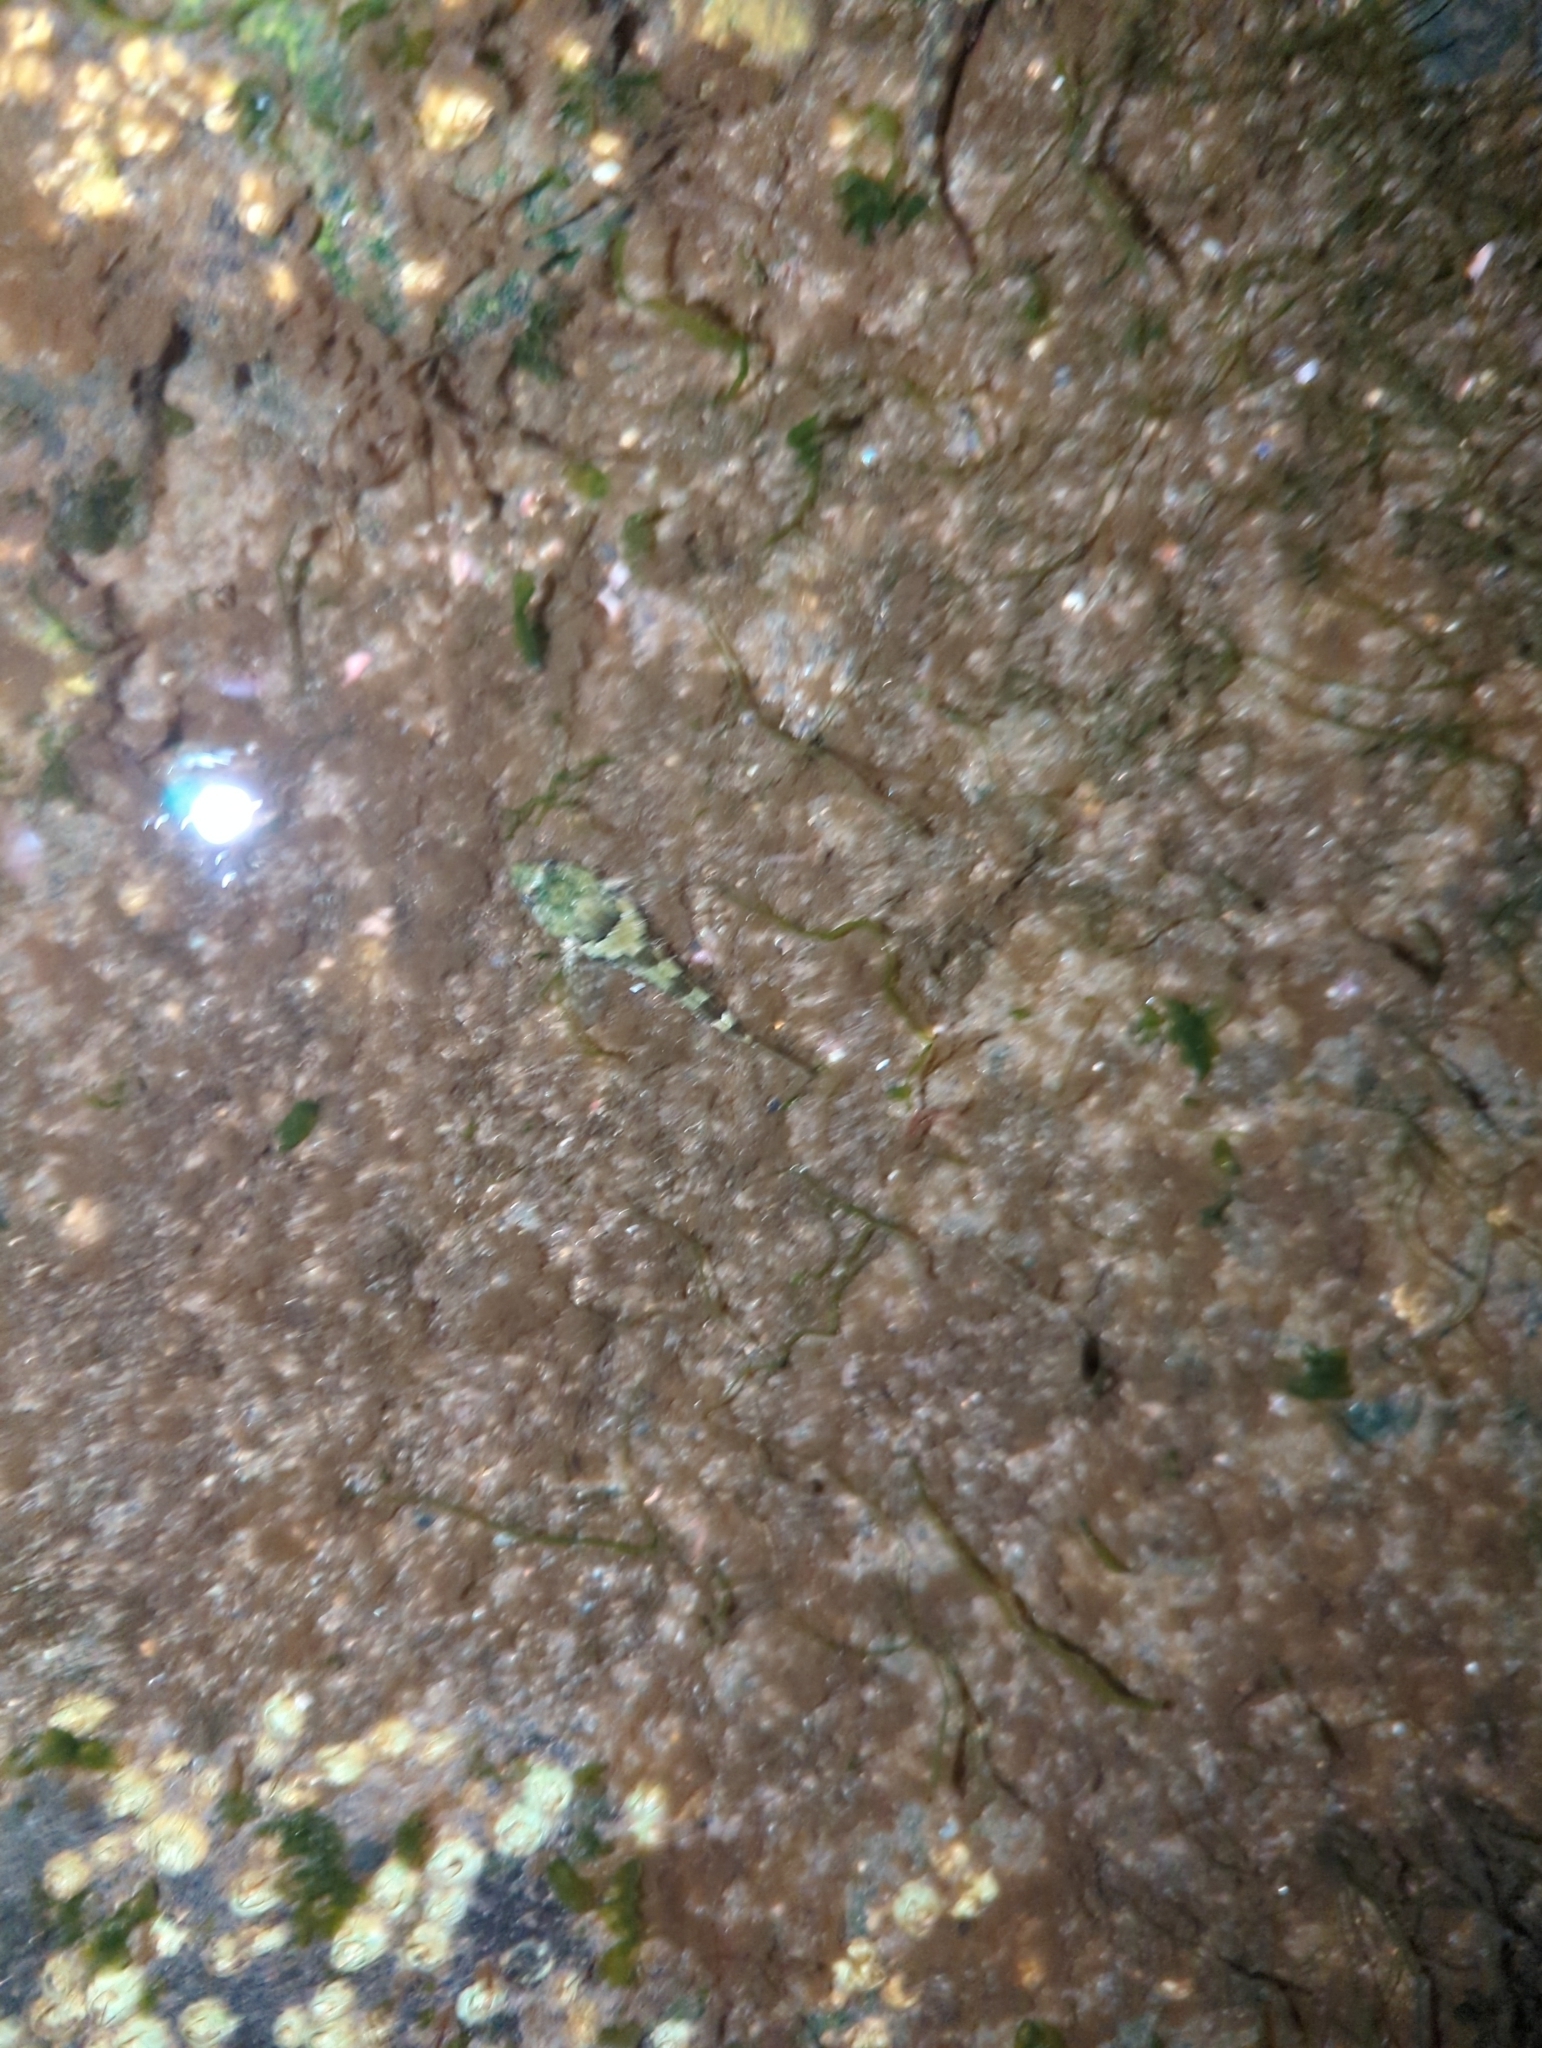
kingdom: Animalia
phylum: Chordata
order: Scorpaeniformes
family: Cottidae
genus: Oligocottus
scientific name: Oligocottus maculosus
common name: Tidepool sculpin
